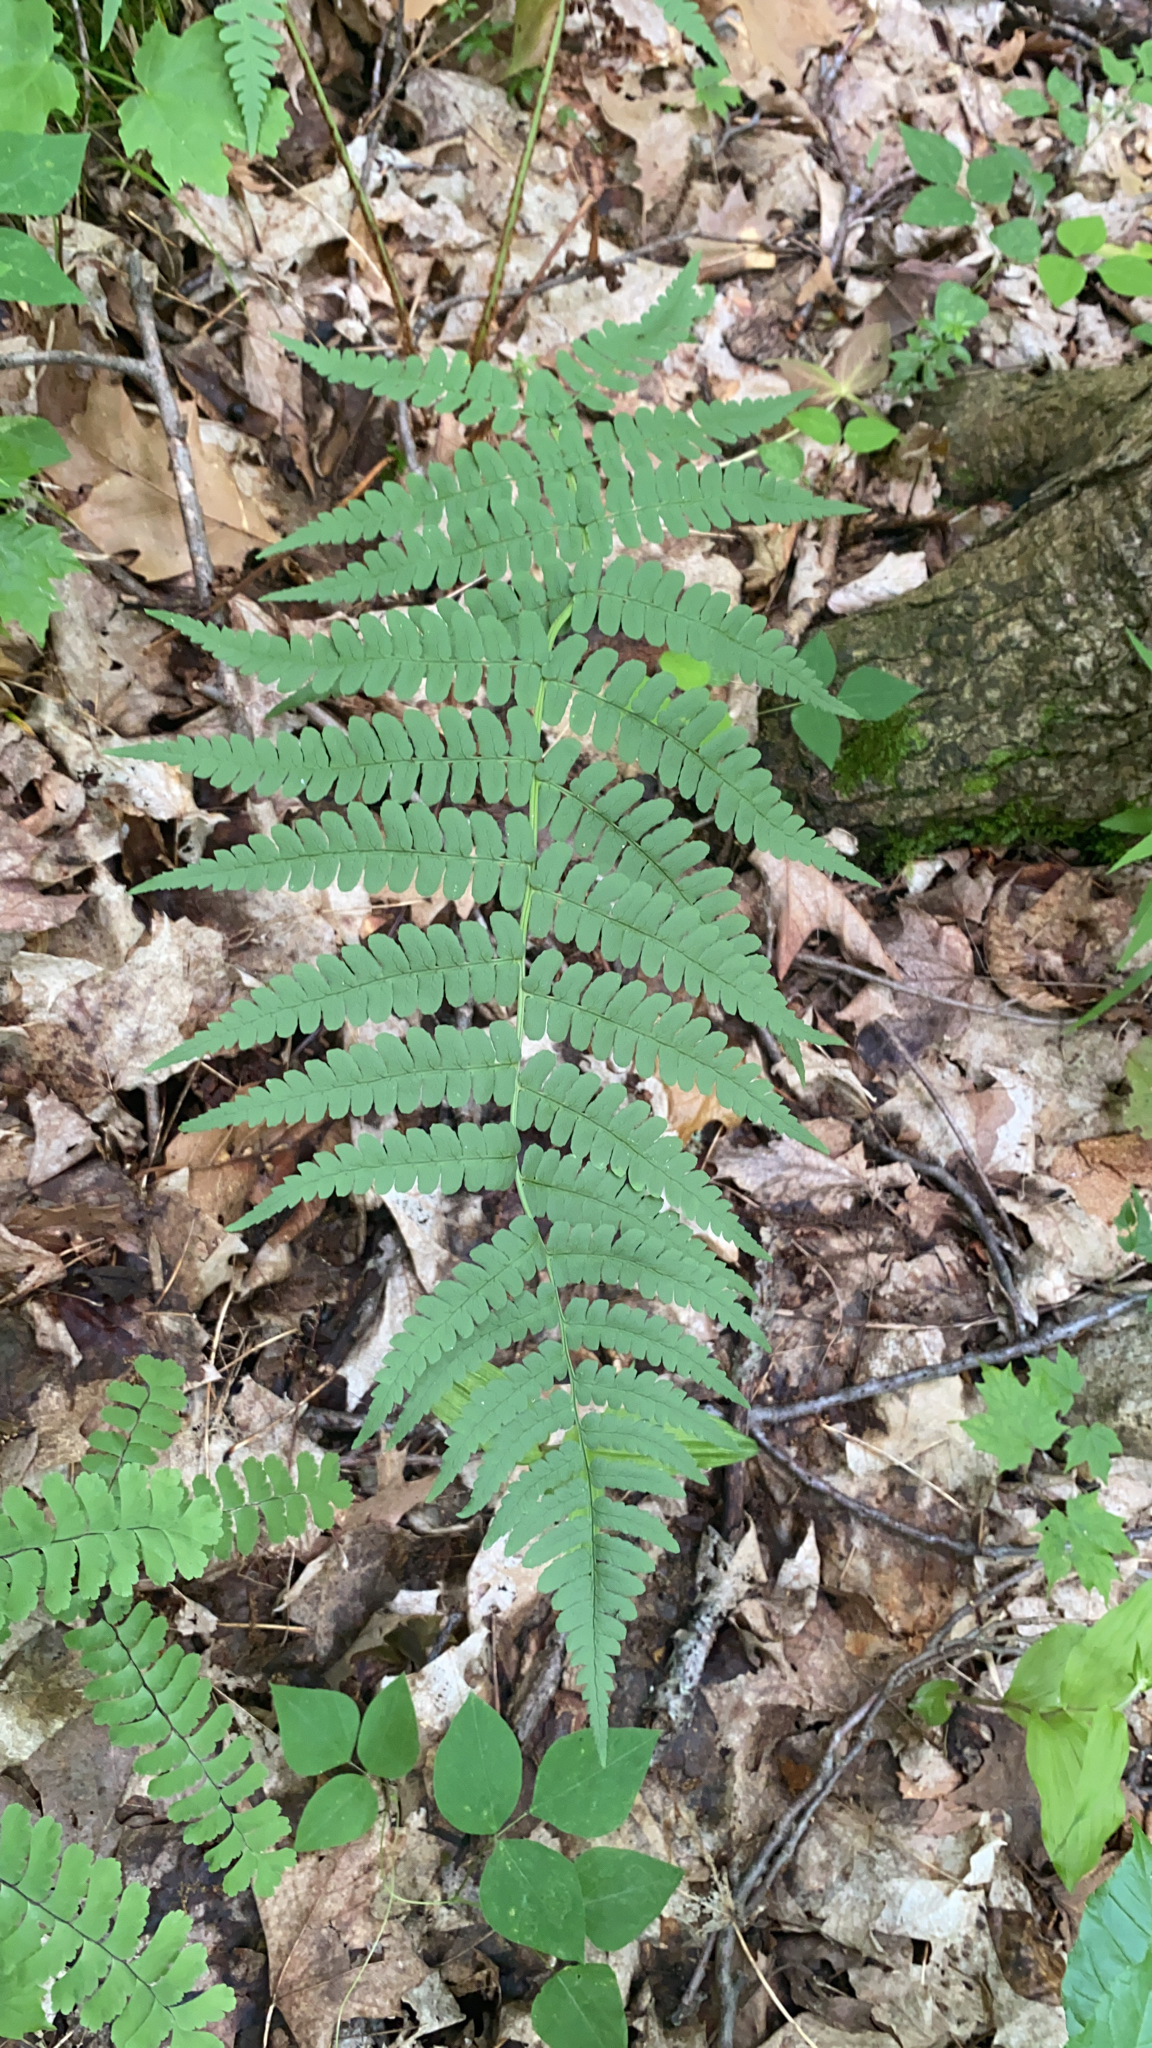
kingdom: Plantae
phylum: Tracheophyta
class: Polypodiopsida
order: Polypodiales
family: Dryopteridaceae
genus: Dryopteris
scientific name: Dryopteris marginalis
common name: Marginal wood fern
